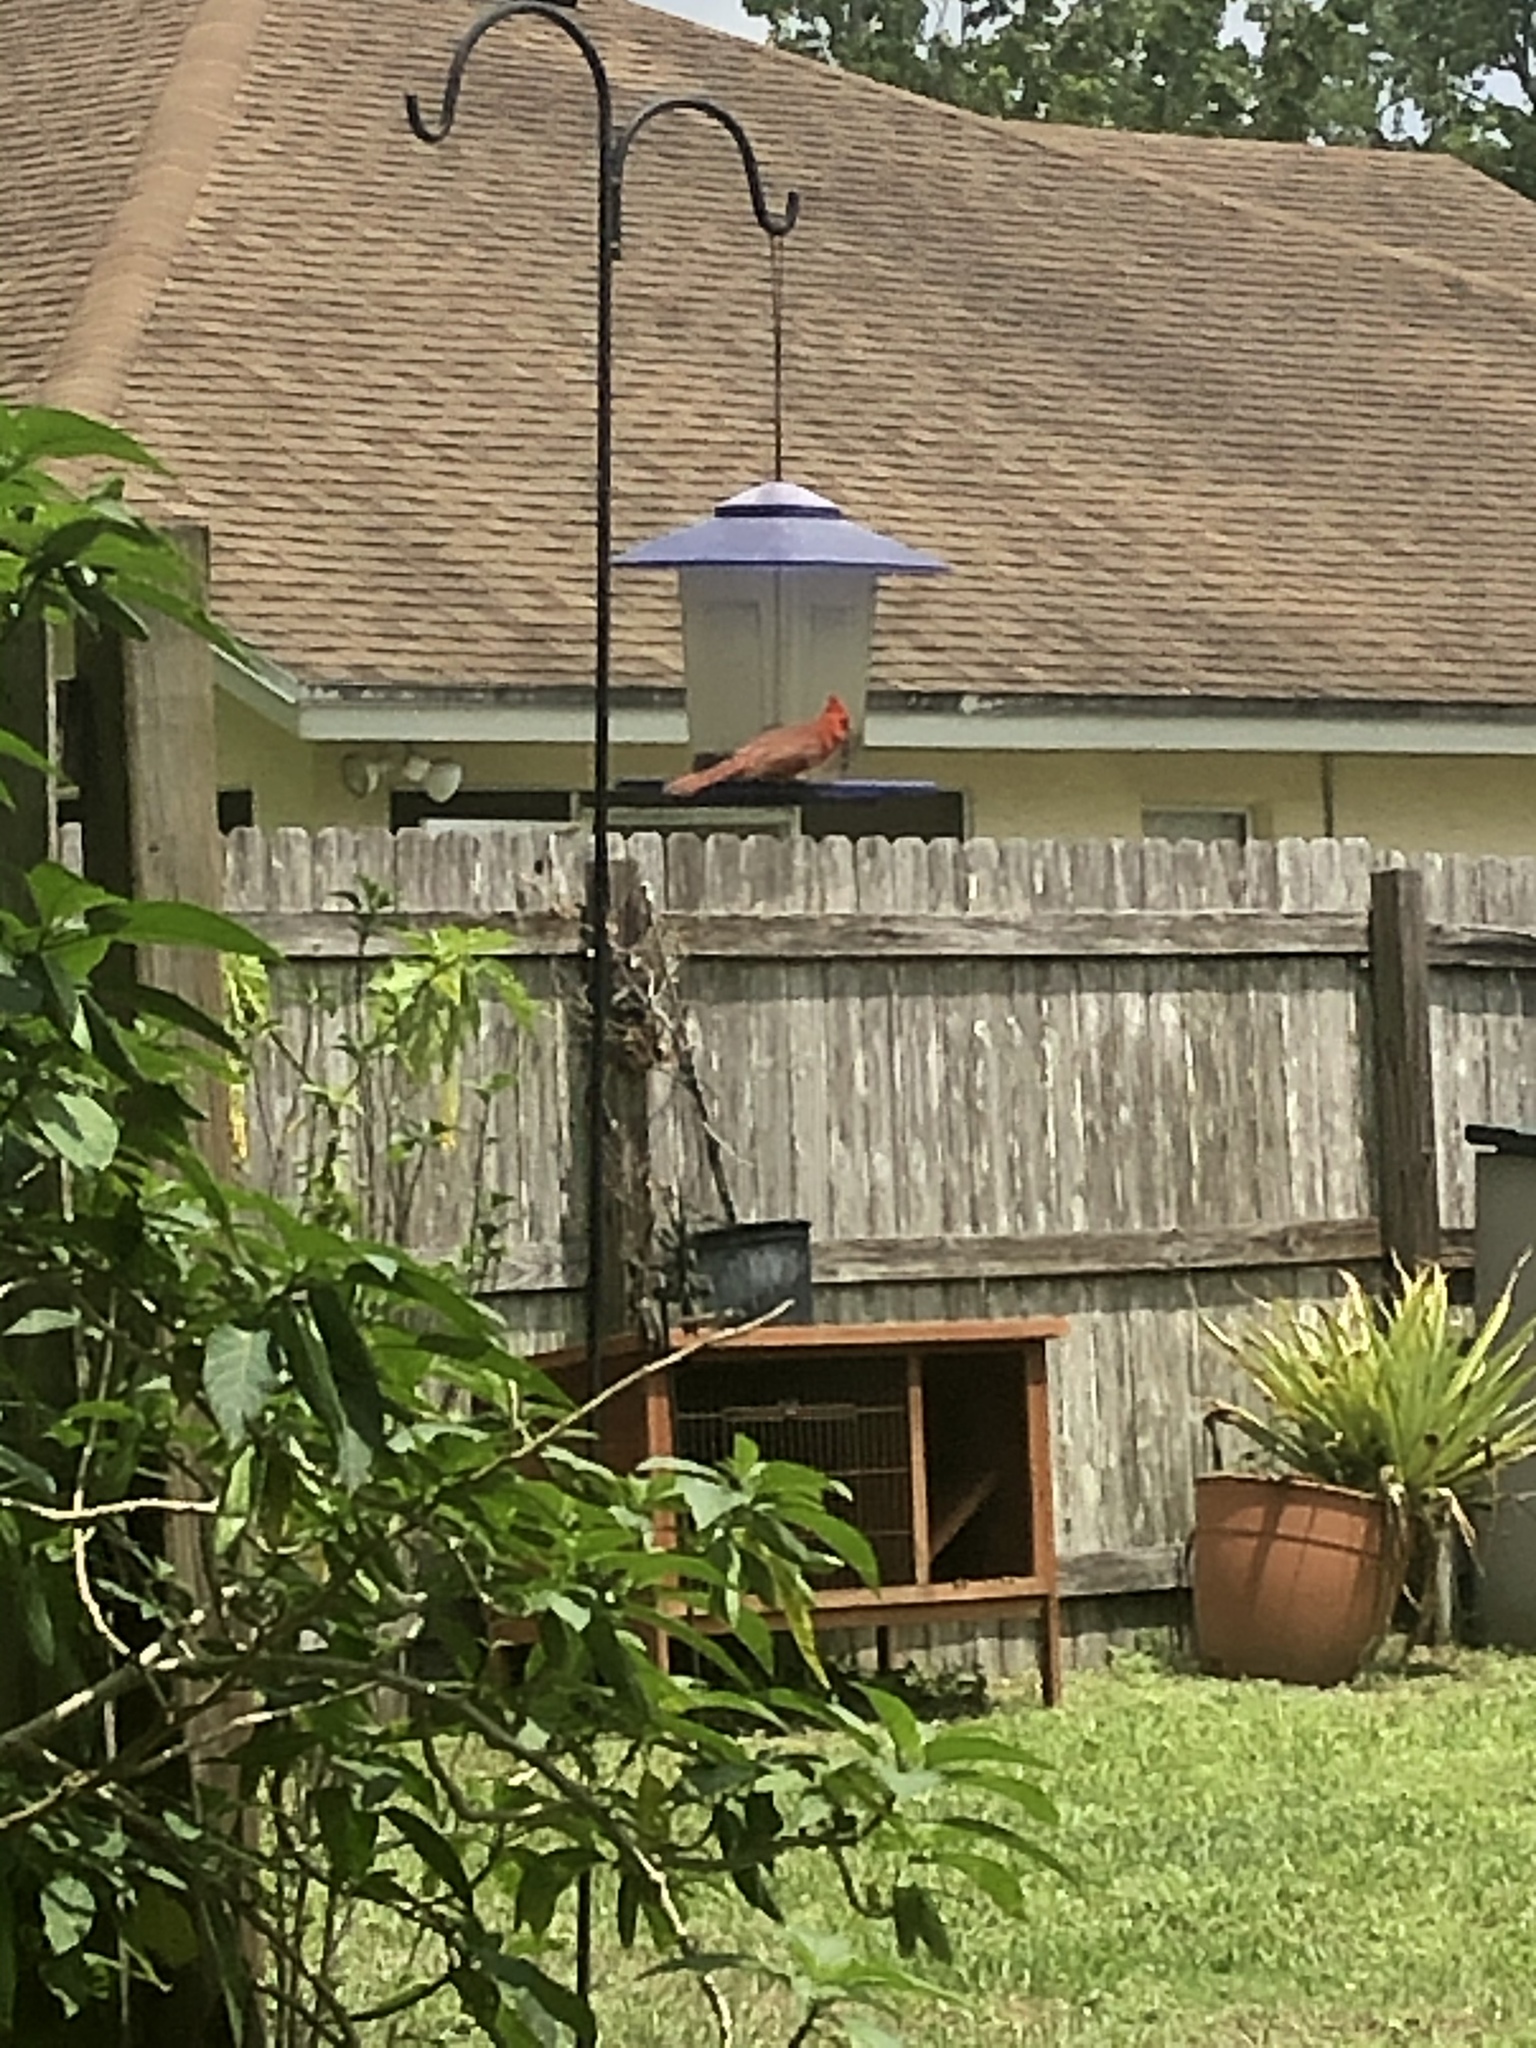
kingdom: Animalia
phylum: Chordata
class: Aves
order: Passeriformes
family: Cardinalidae
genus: Cardinalis
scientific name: Cardinalis cardinalis
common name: Northern cardinal
